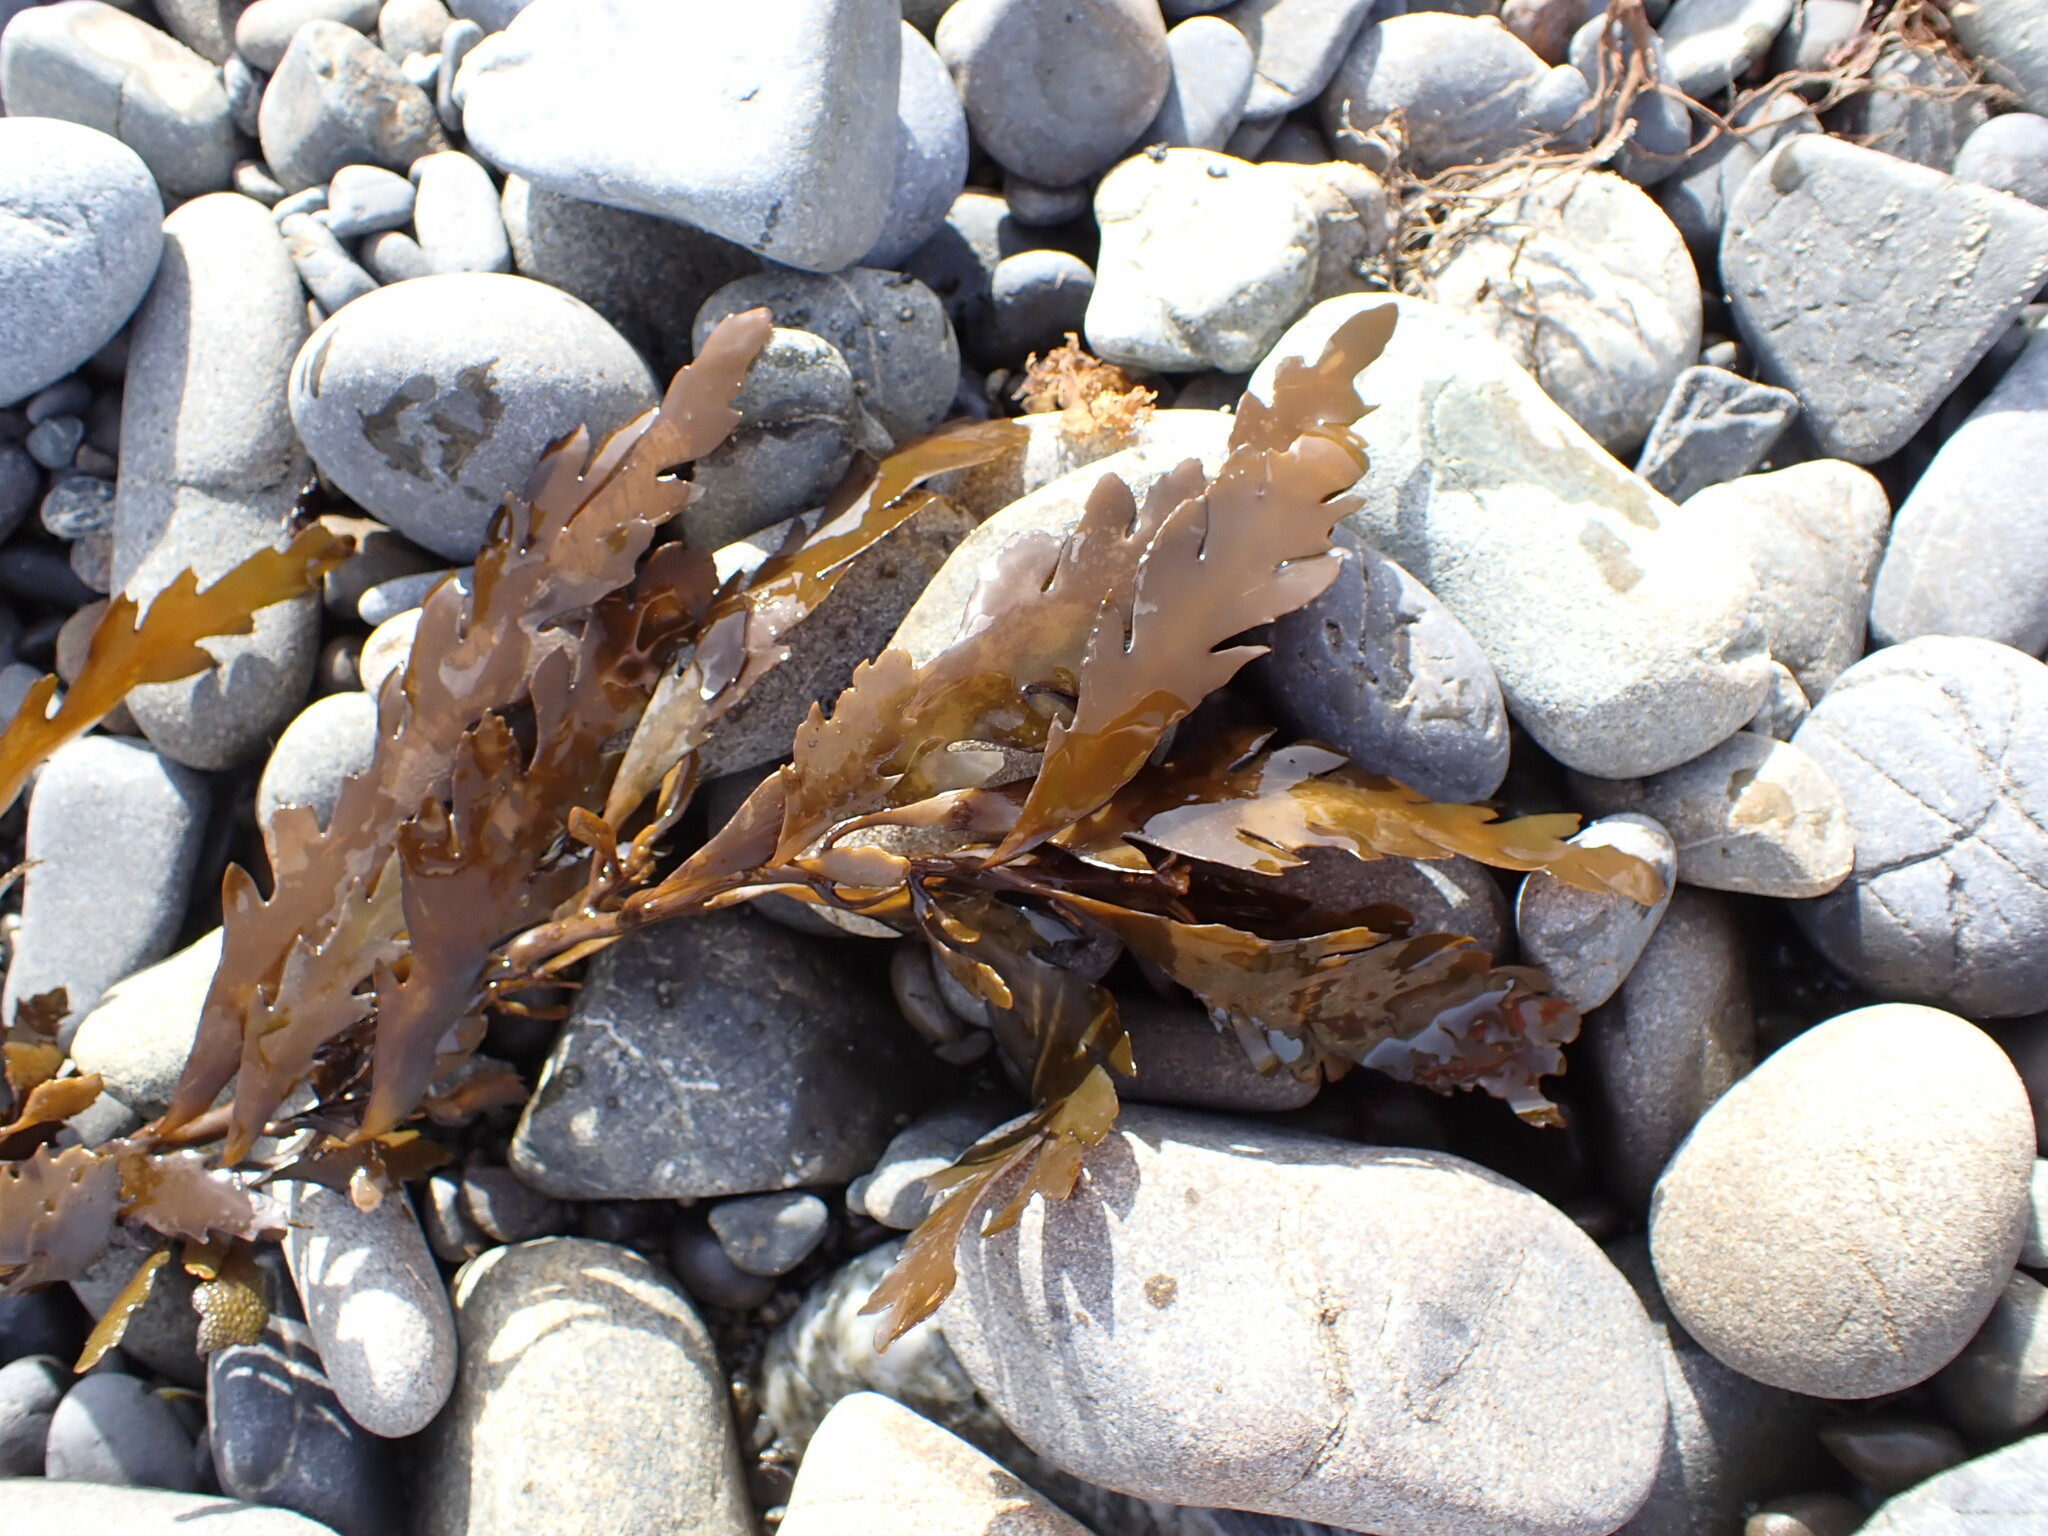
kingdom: Chromista
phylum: Ochrophyta
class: Phaeophyceae
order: Fucales
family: Sargassaceae
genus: Landsburgia
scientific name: Landsburgia quercifolia
